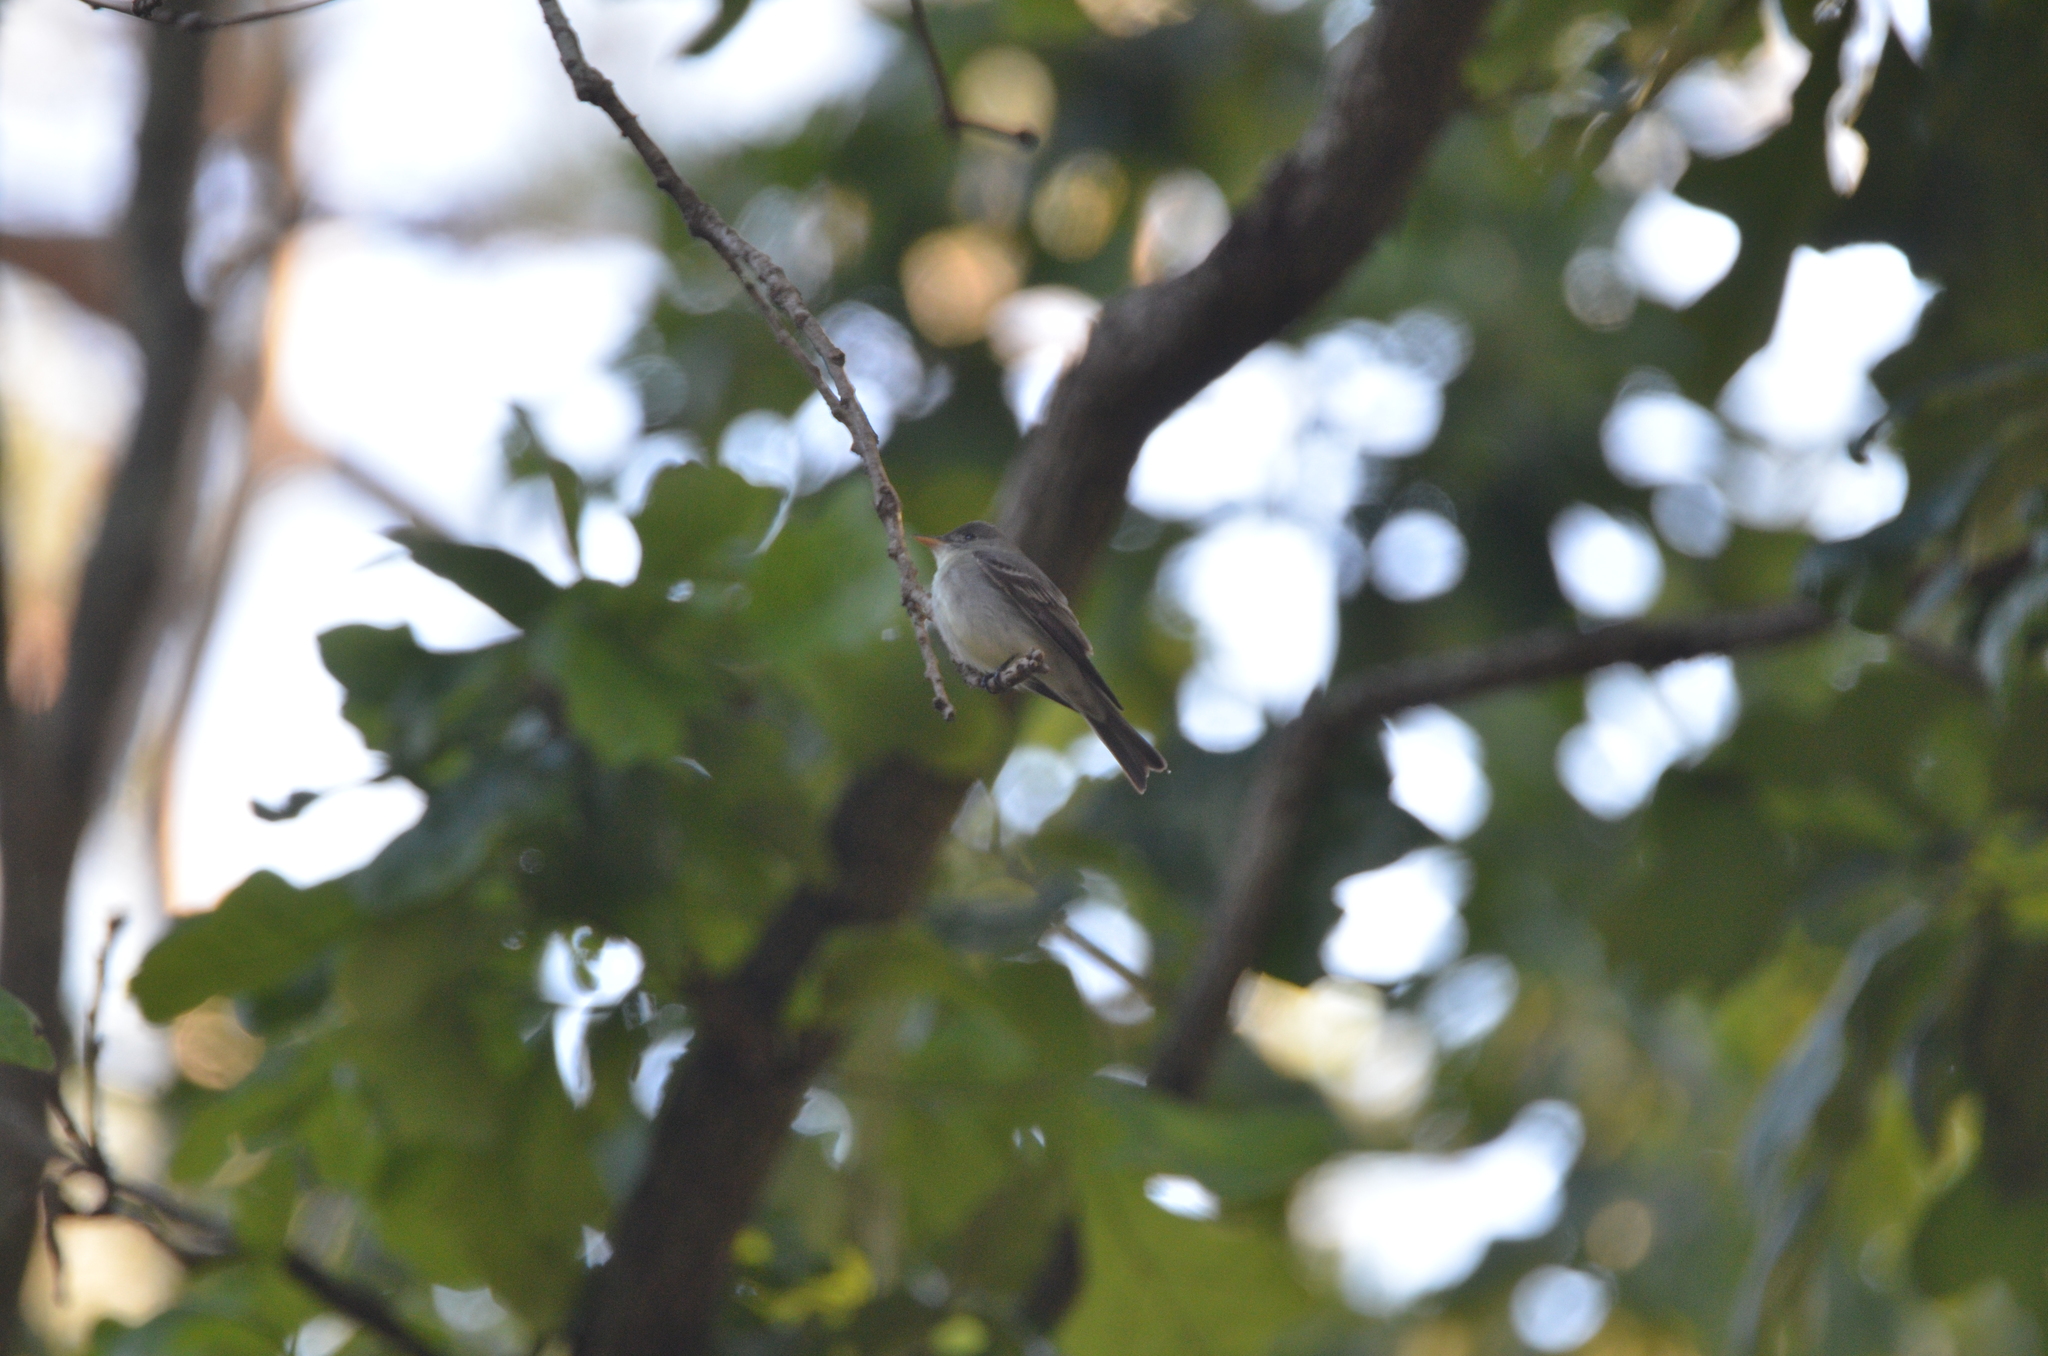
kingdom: Animalia
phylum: Chordata
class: Aves
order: Passeriformes
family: Tyrannidae
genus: Contopus
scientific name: Contopus virens
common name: Eastern wood-pewee
